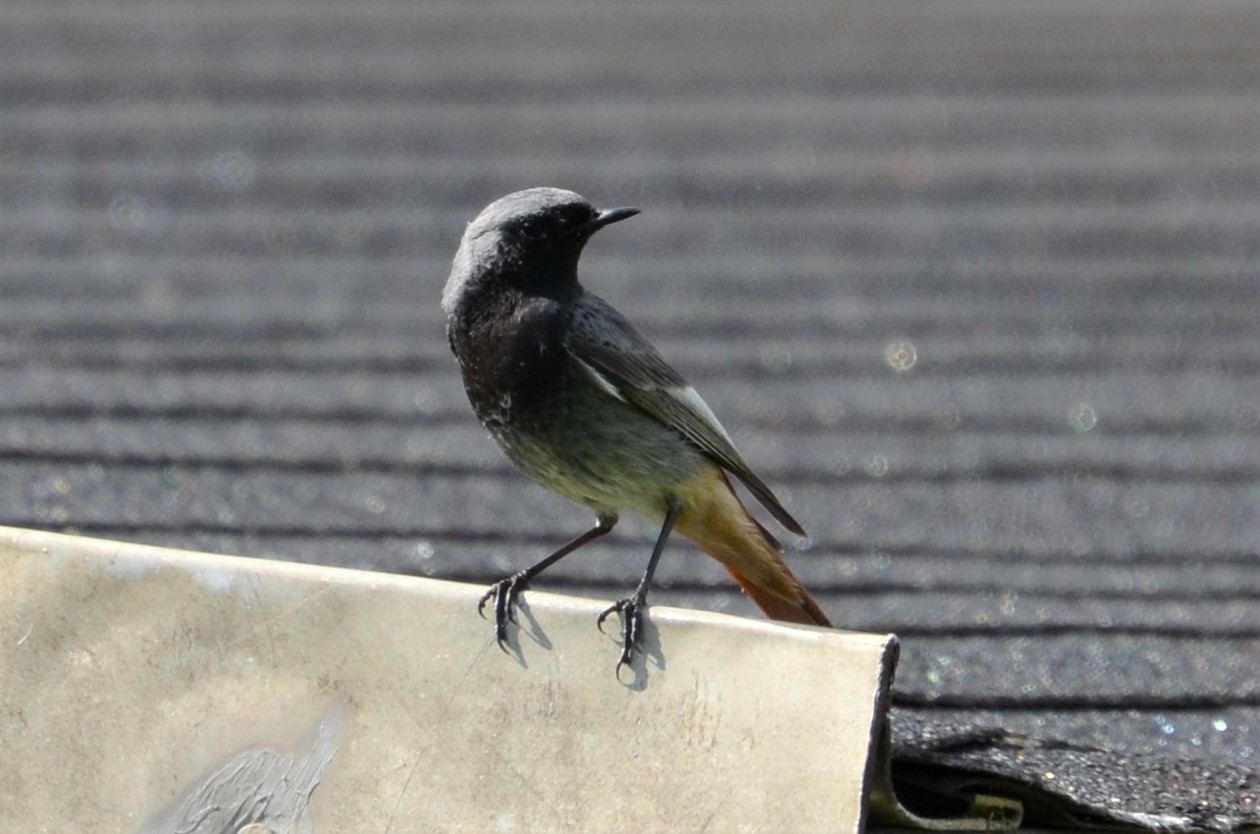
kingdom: Animalia
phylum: Chordata
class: Aves
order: Passeriformes
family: Muscicapidae
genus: Phoenicurus
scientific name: Phoenicurus ochruros
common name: Black redstart
